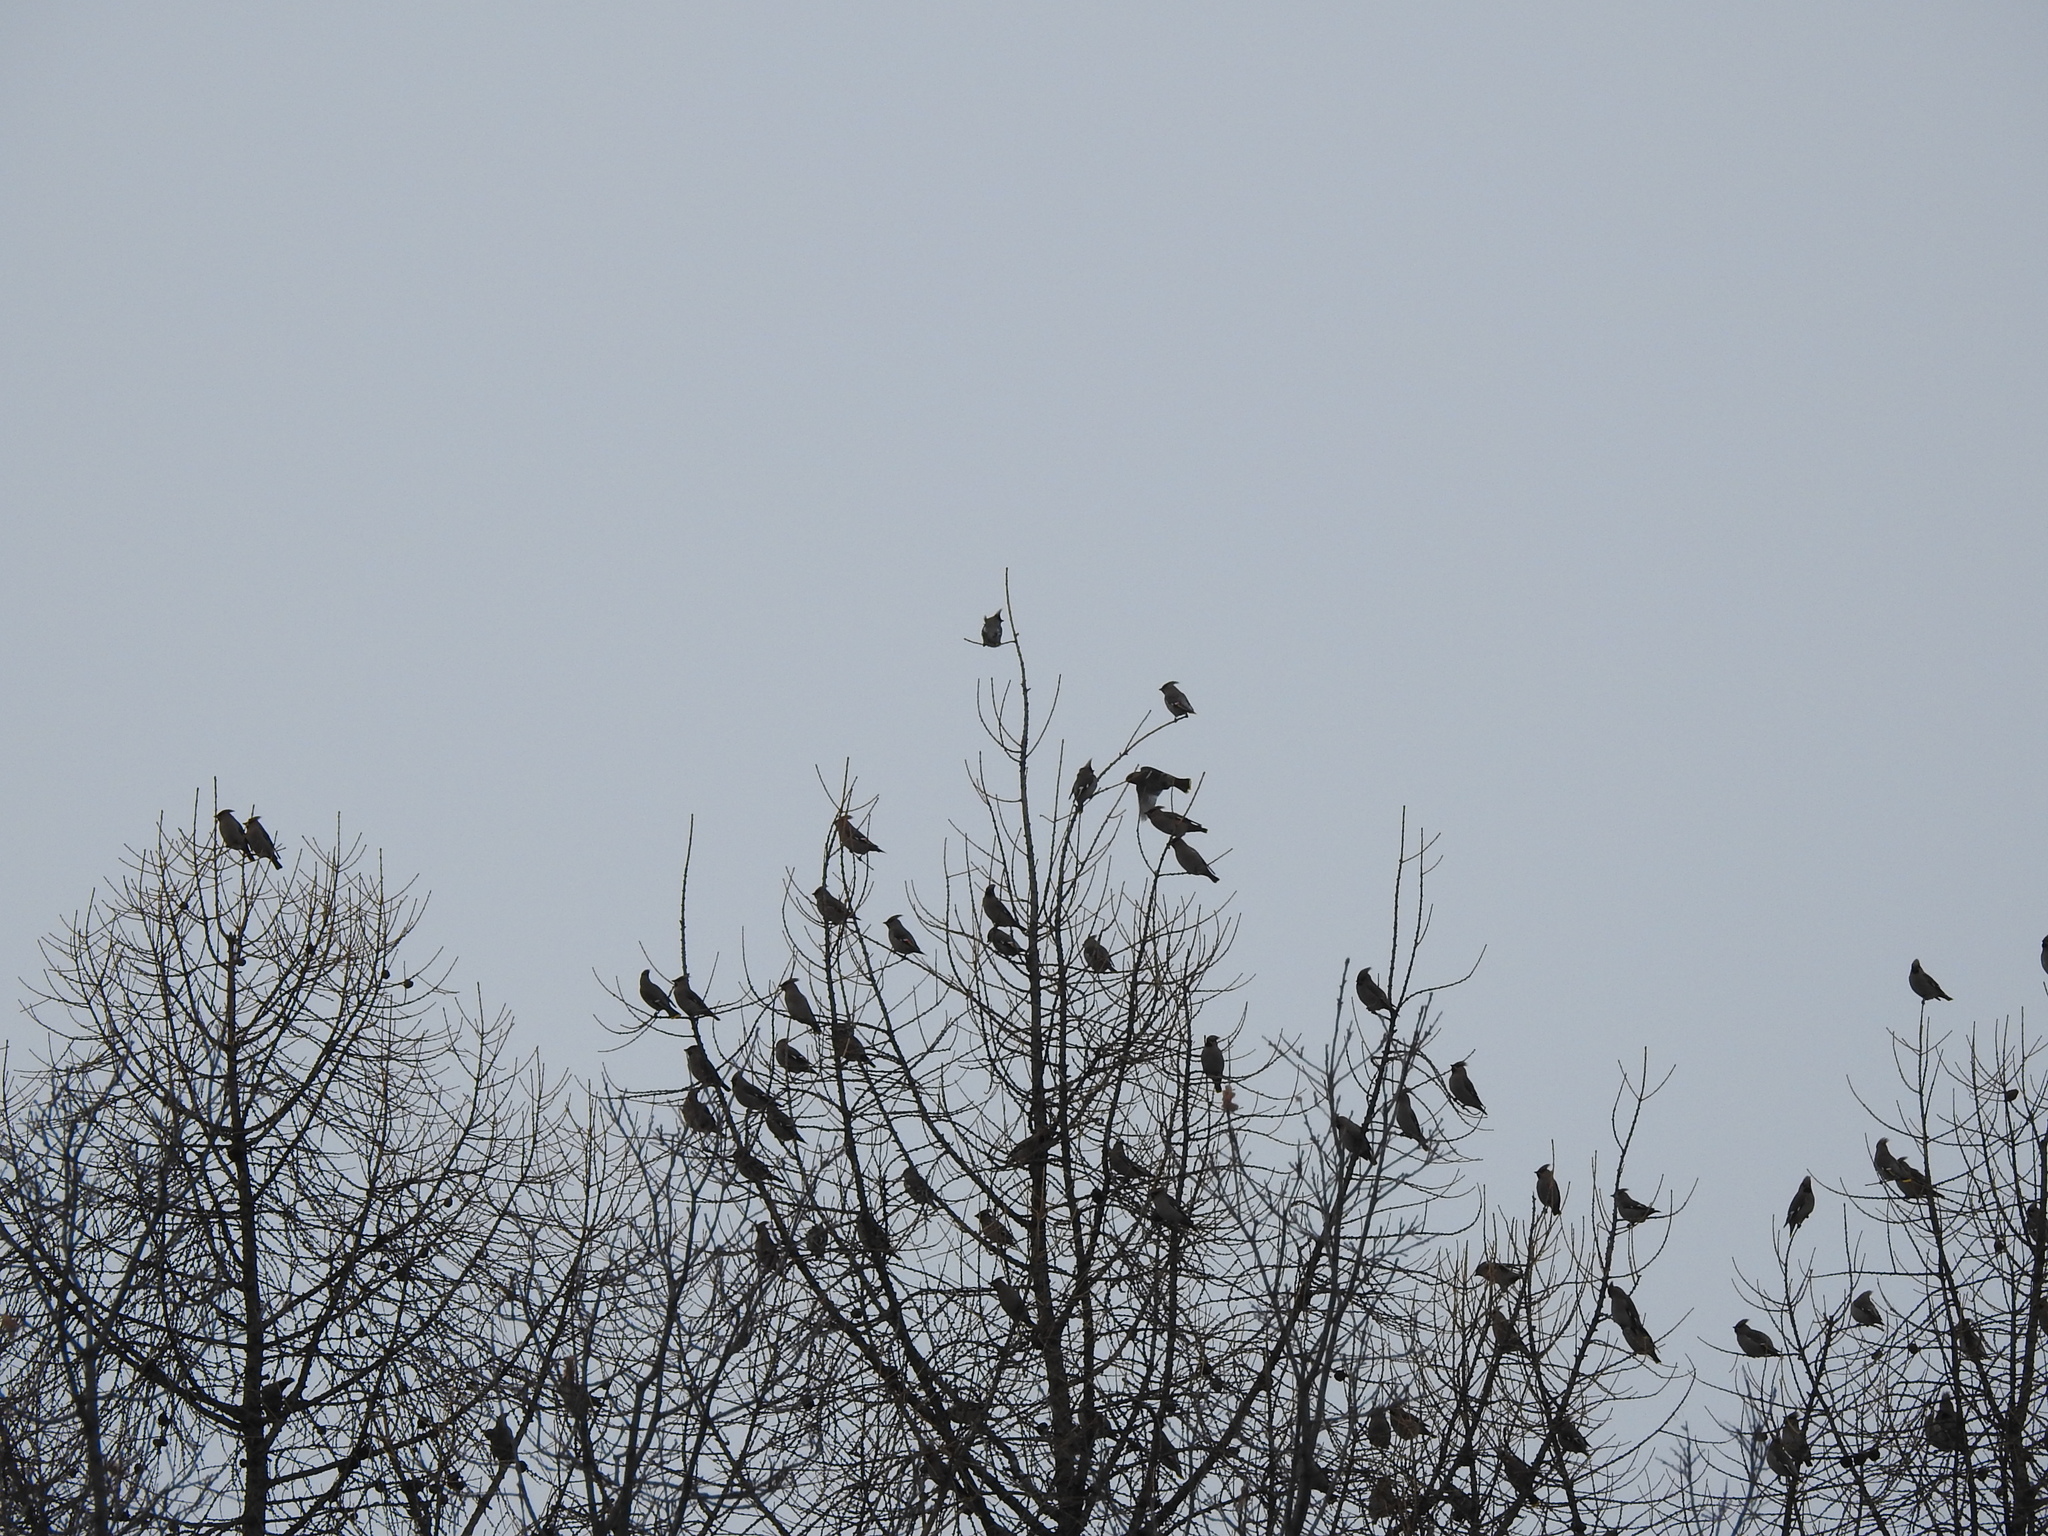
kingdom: Animalia
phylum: Chordata
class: Aves
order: Passeriformes
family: Bombycillidae
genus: Bombycilla
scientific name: Bombycilla garrulus
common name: Bohemian waxwing
